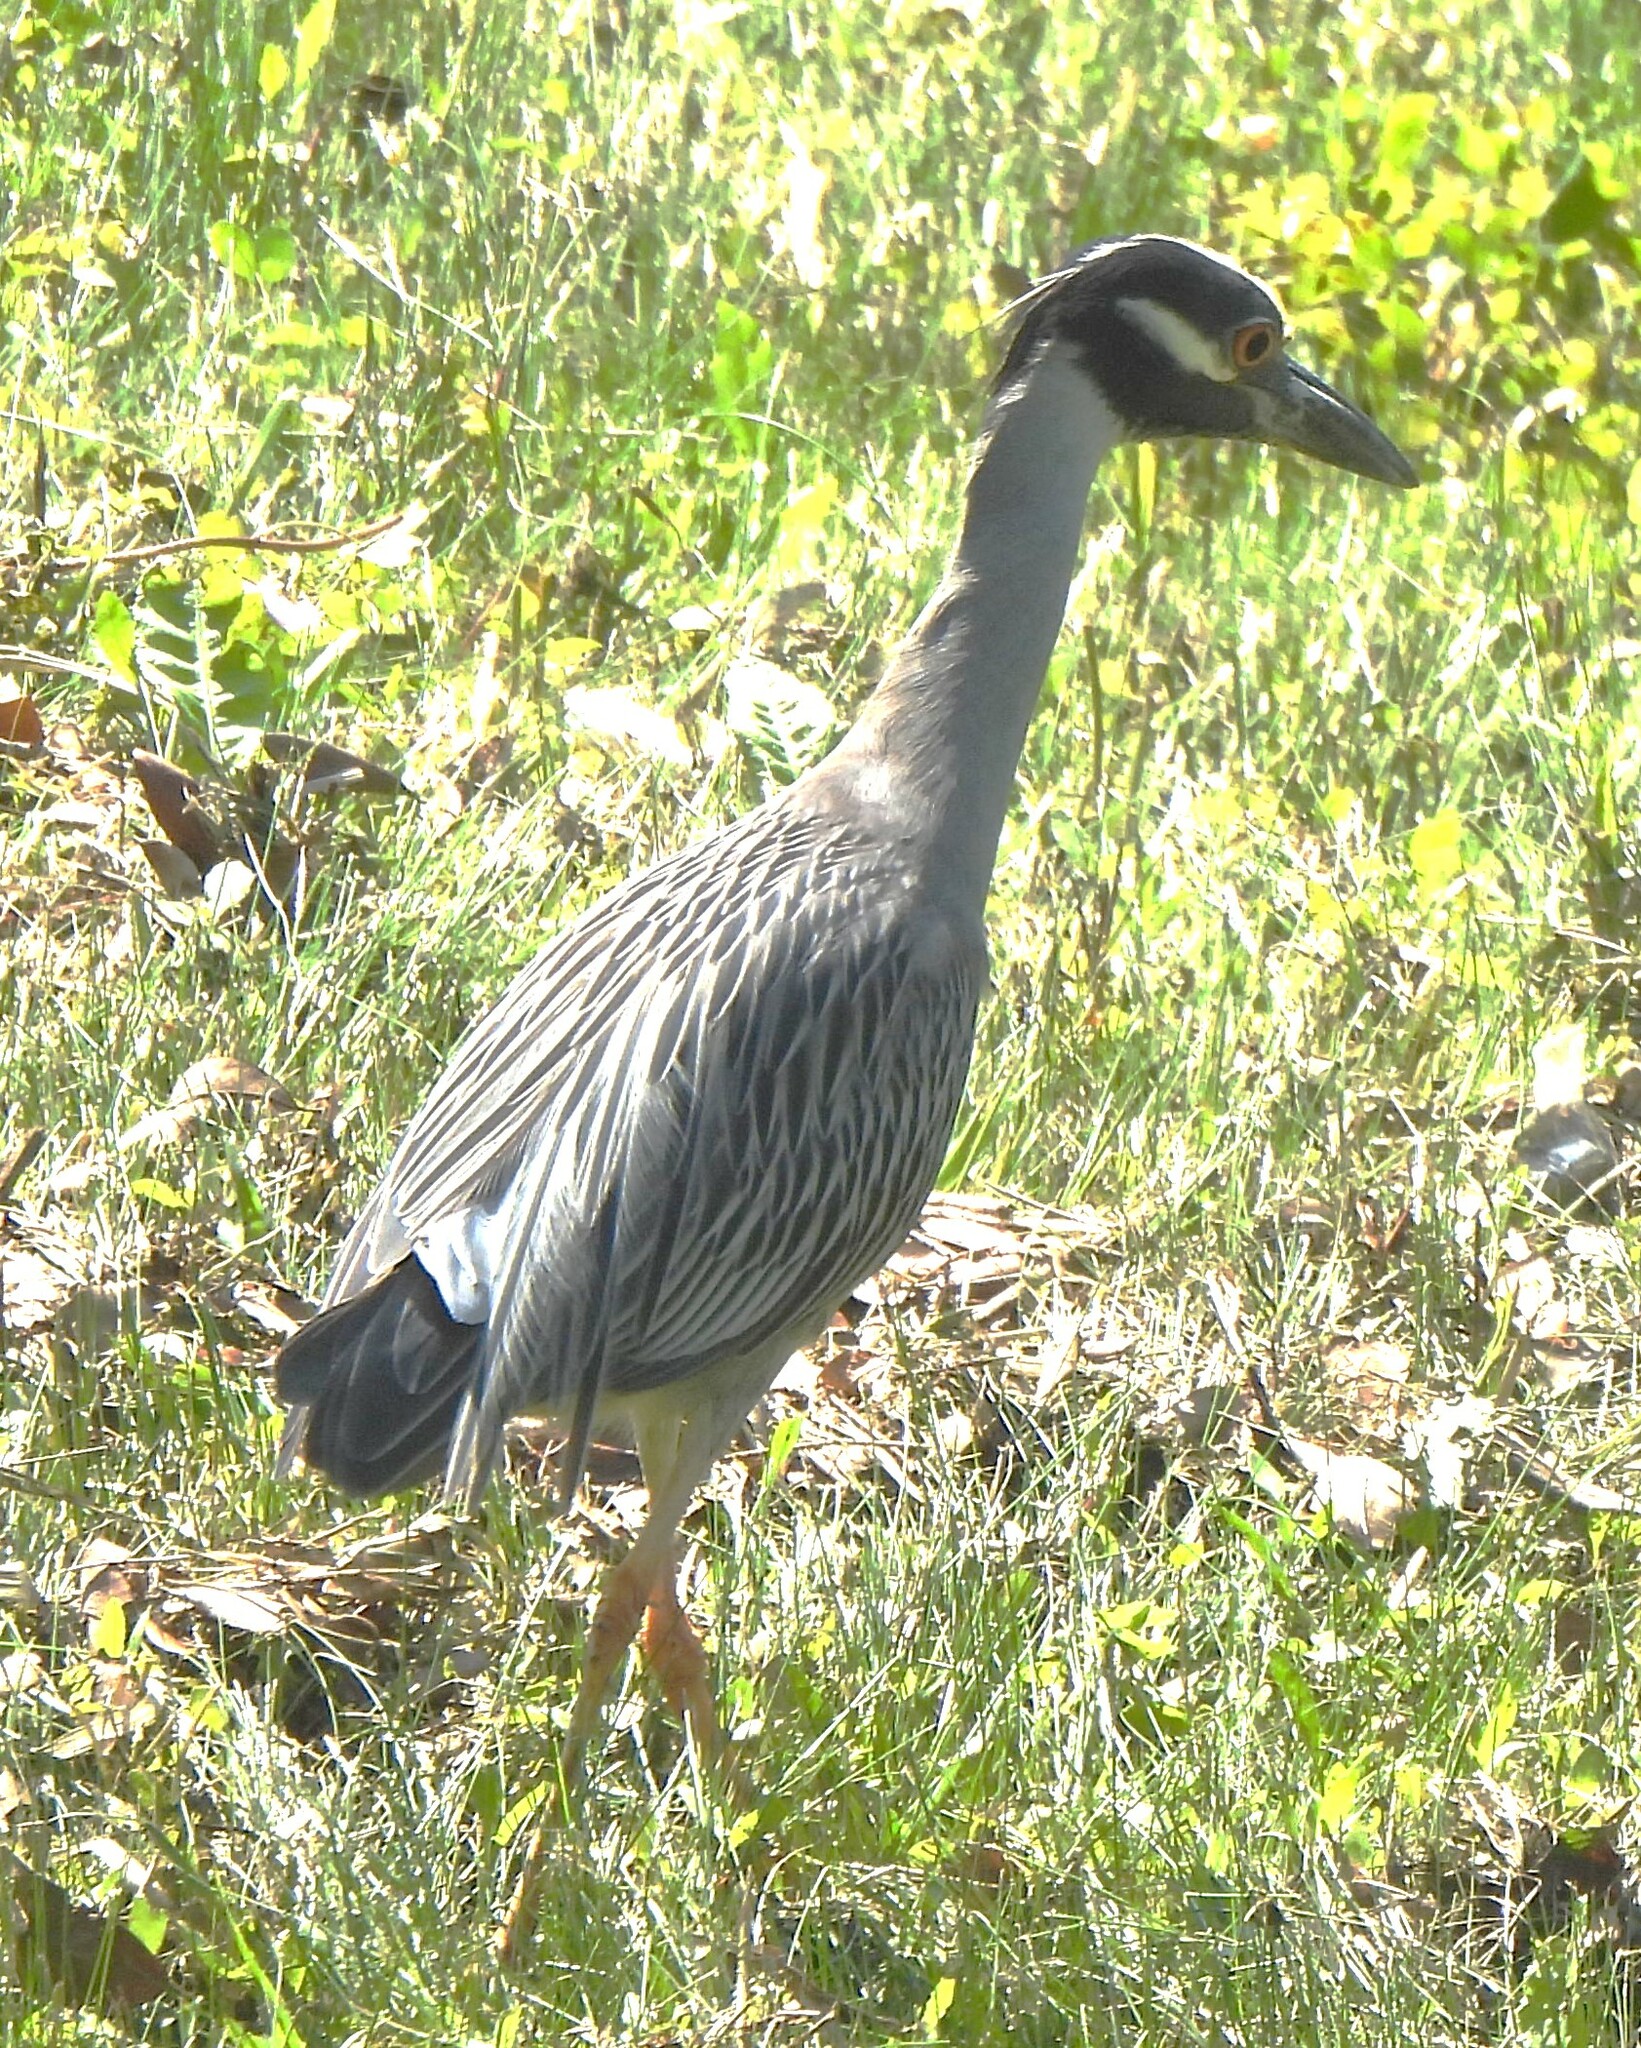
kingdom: Animalia
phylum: Chordata
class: Aves
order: Pelecaniformes
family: Ardeidae
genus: Nyctanassa
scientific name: Nyctanassa violacea
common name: Yellow-crowned night heron
